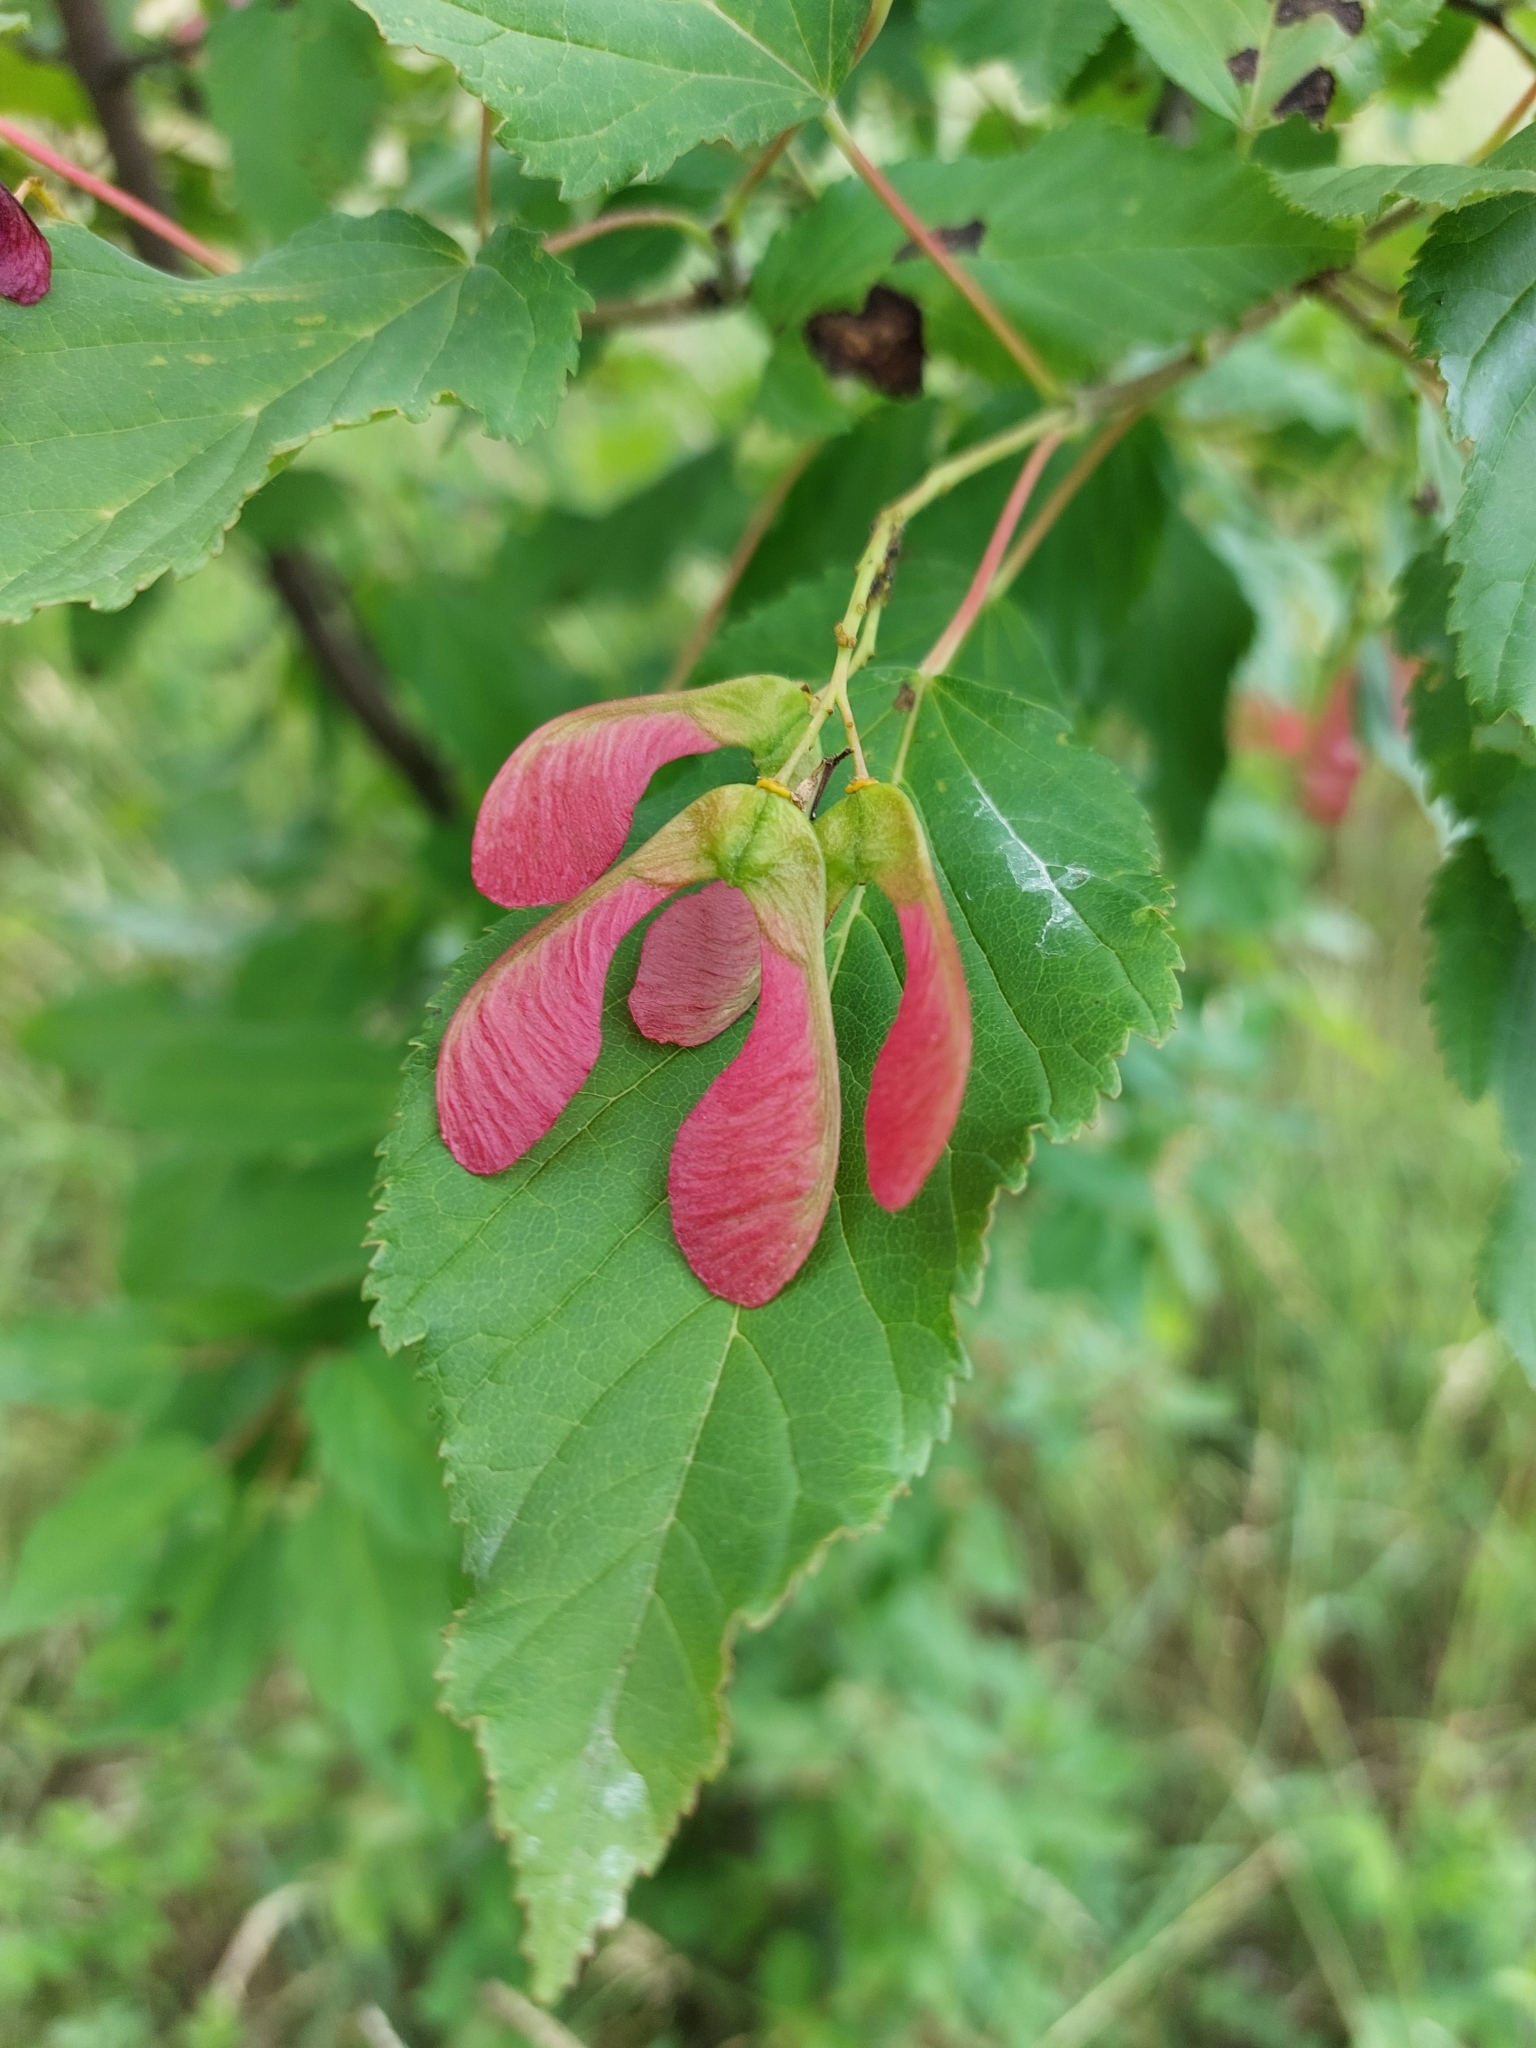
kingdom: Plantae
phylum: Tracheophyta
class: Magnoliopsida
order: Sapindales
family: Sapindaceae
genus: Acer
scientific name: Acer tataricum
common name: Tartar maple
